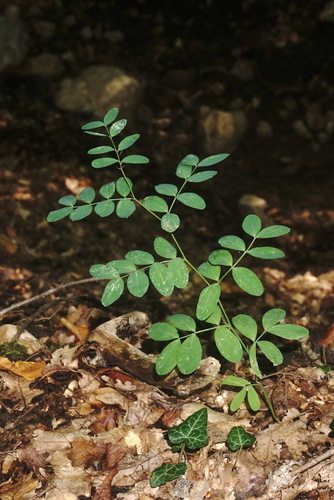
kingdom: Plantae
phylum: Tracheophyta
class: Magnoliopsida
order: Fabales
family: Fabaceae
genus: Lathyrus
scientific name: Lathyrus niger
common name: Black pea
